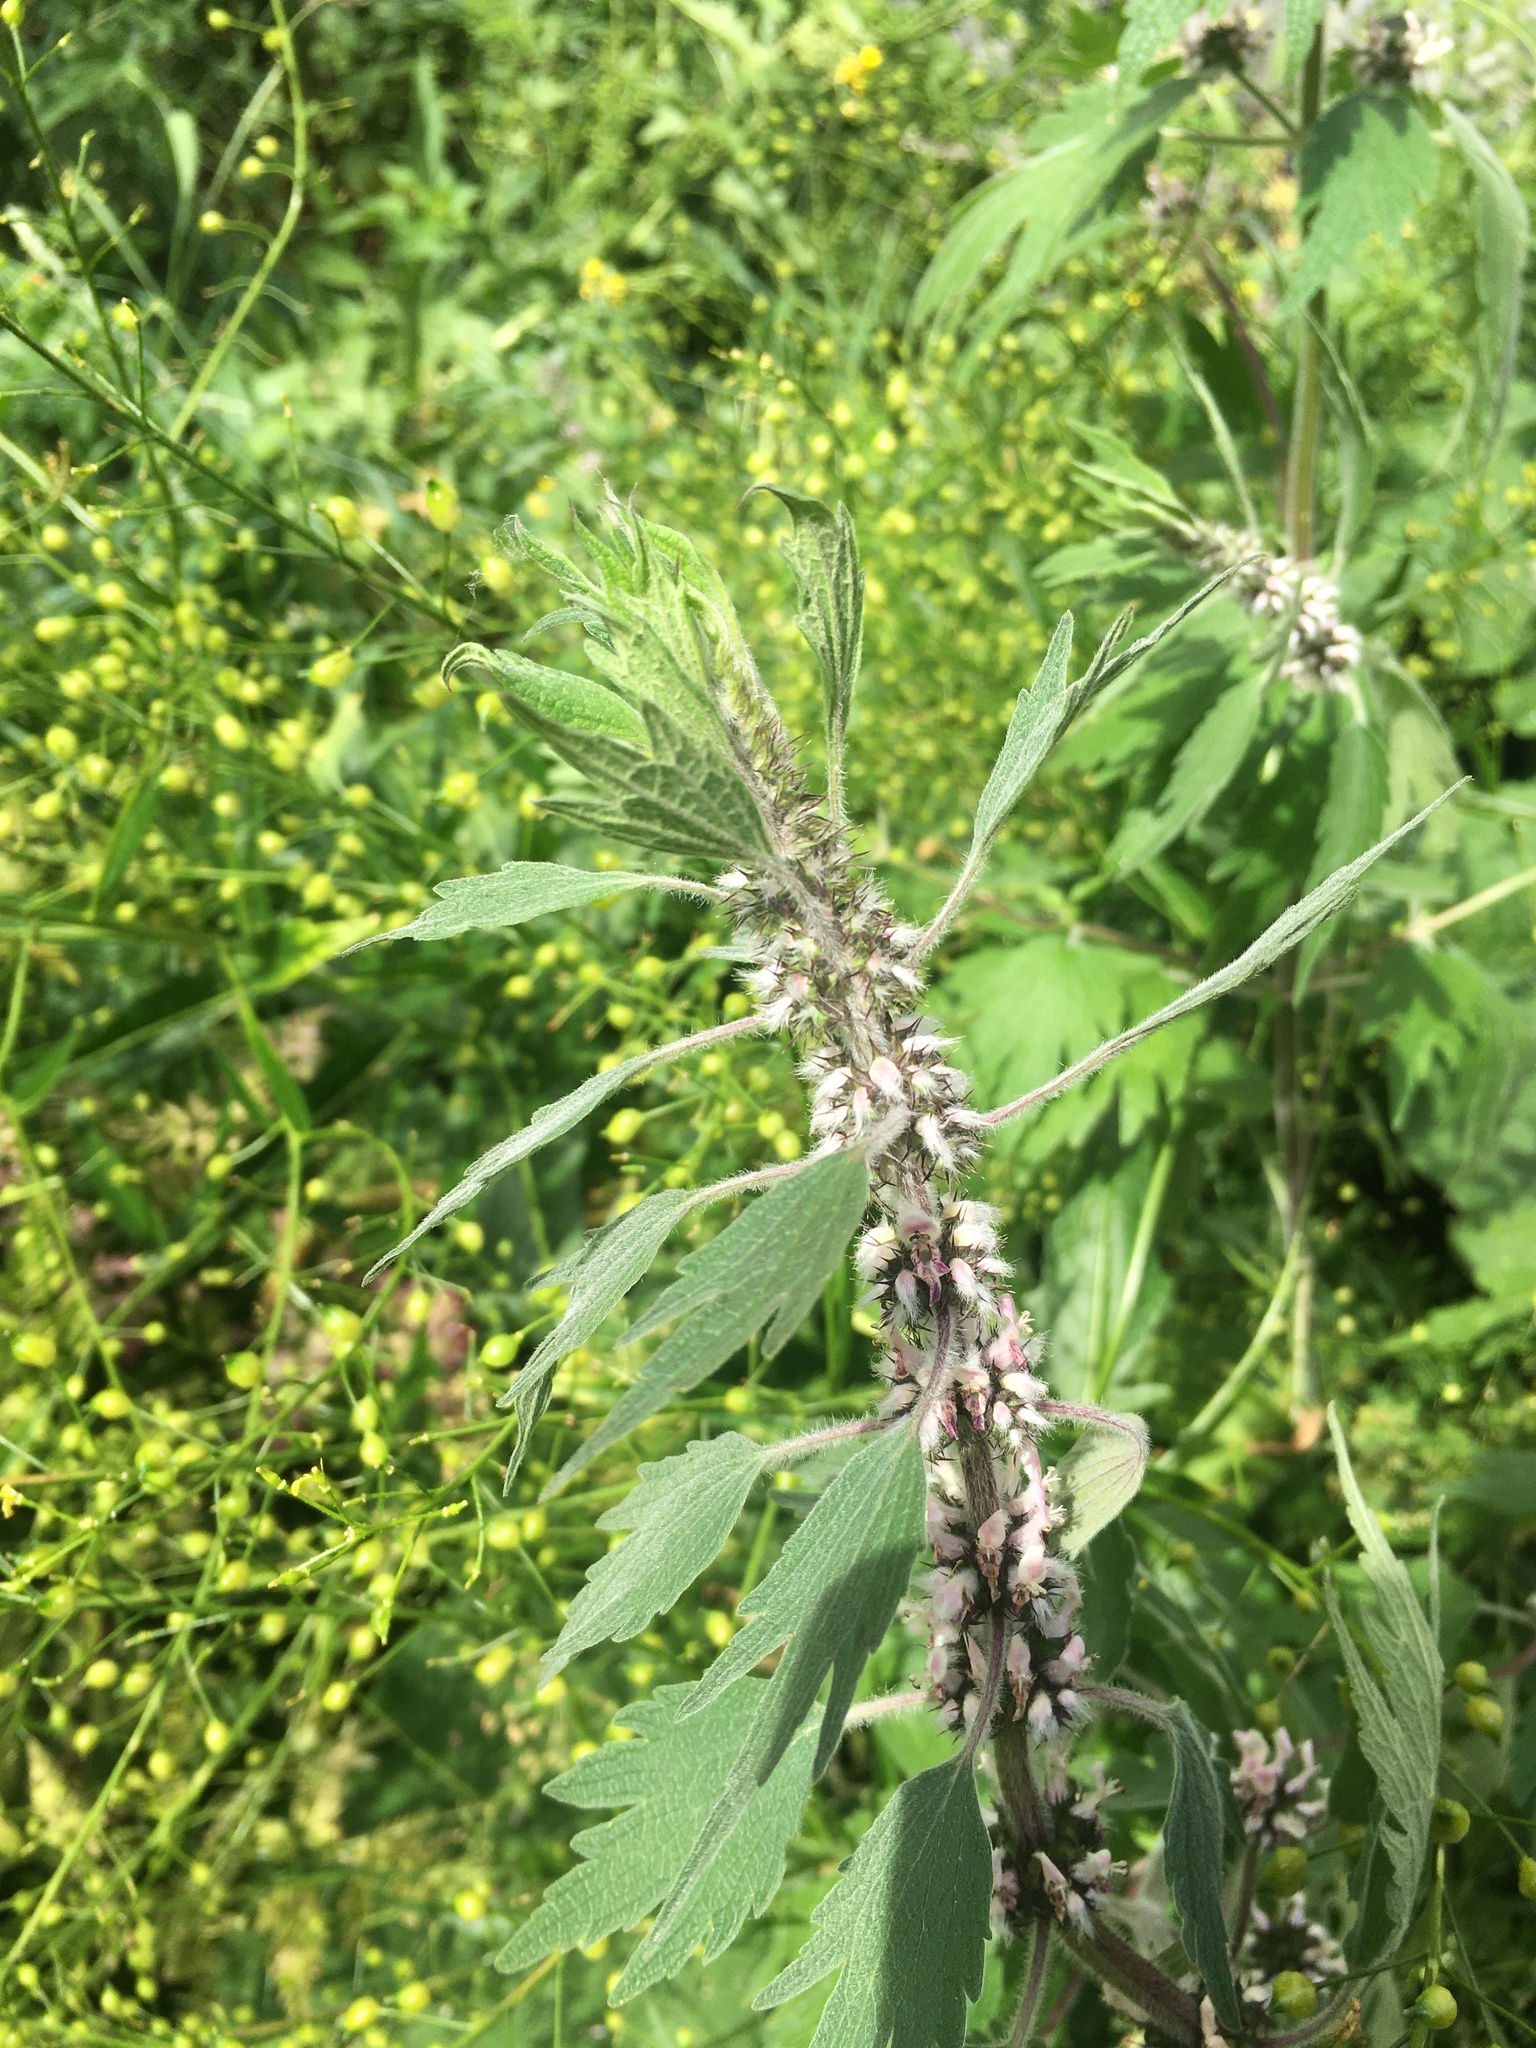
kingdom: Plantae
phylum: Tracheophyta
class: Magnoliopsida
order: Lamiales
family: Lamiaceae
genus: Leonurus
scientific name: Leonurus quinquelobatus
